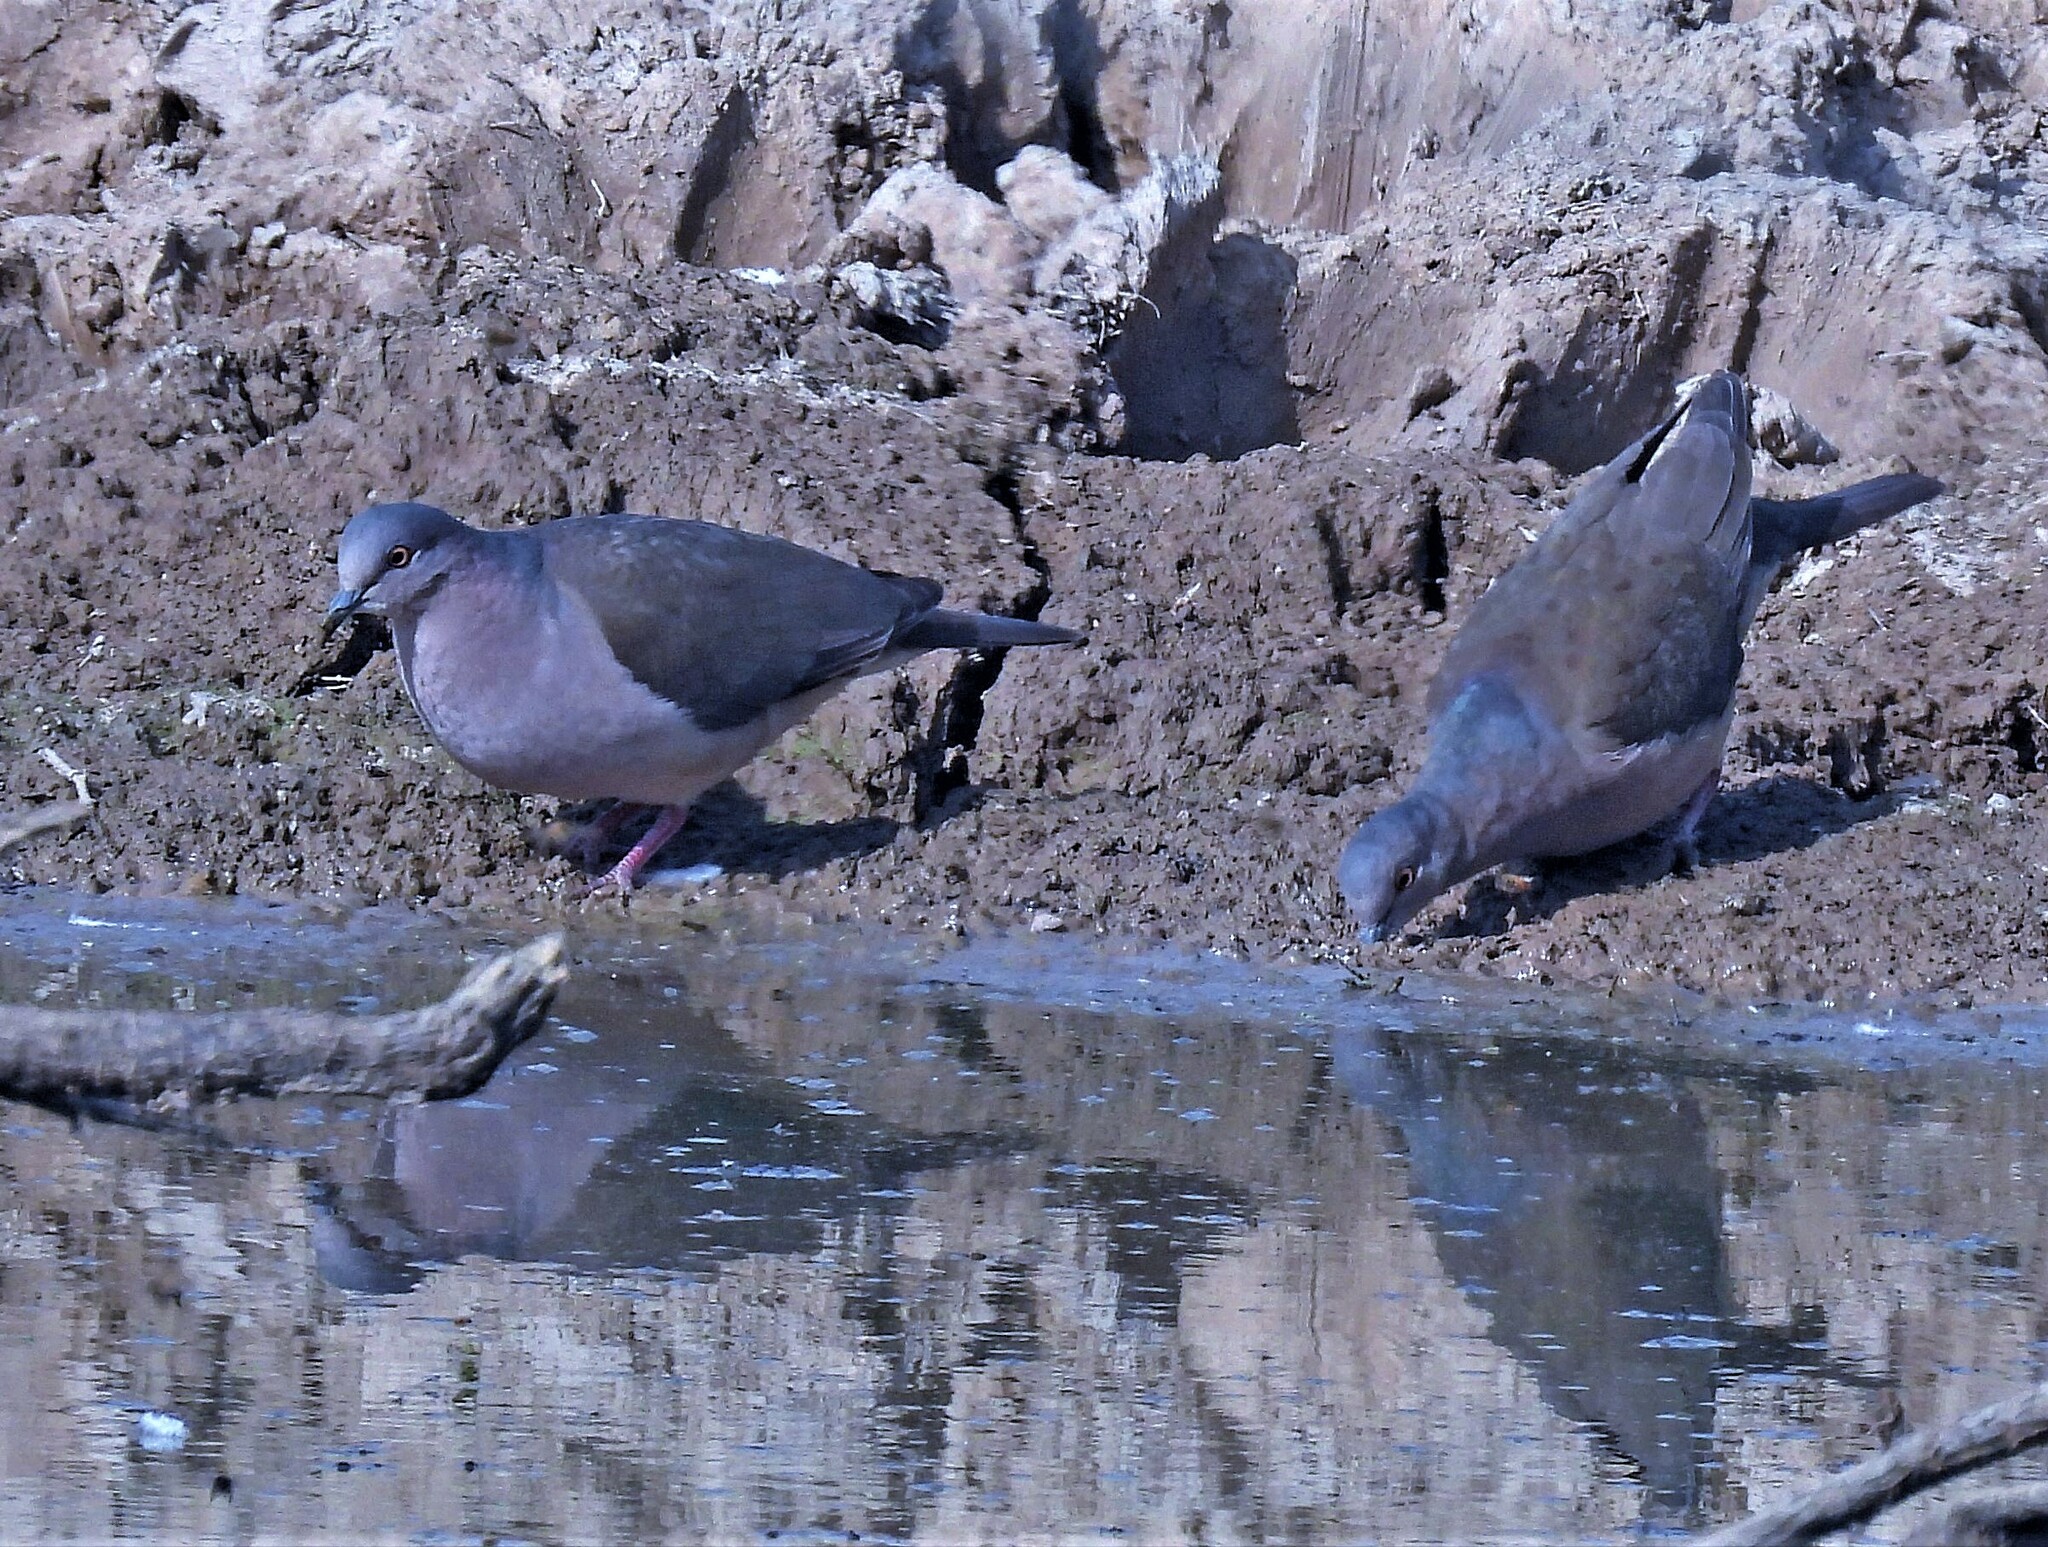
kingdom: Animalia
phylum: Chordata
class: Aves
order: Columbiformes
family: Columbidae
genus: Leptotila
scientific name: Leptotila verreauxi
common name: White-tipped dove
